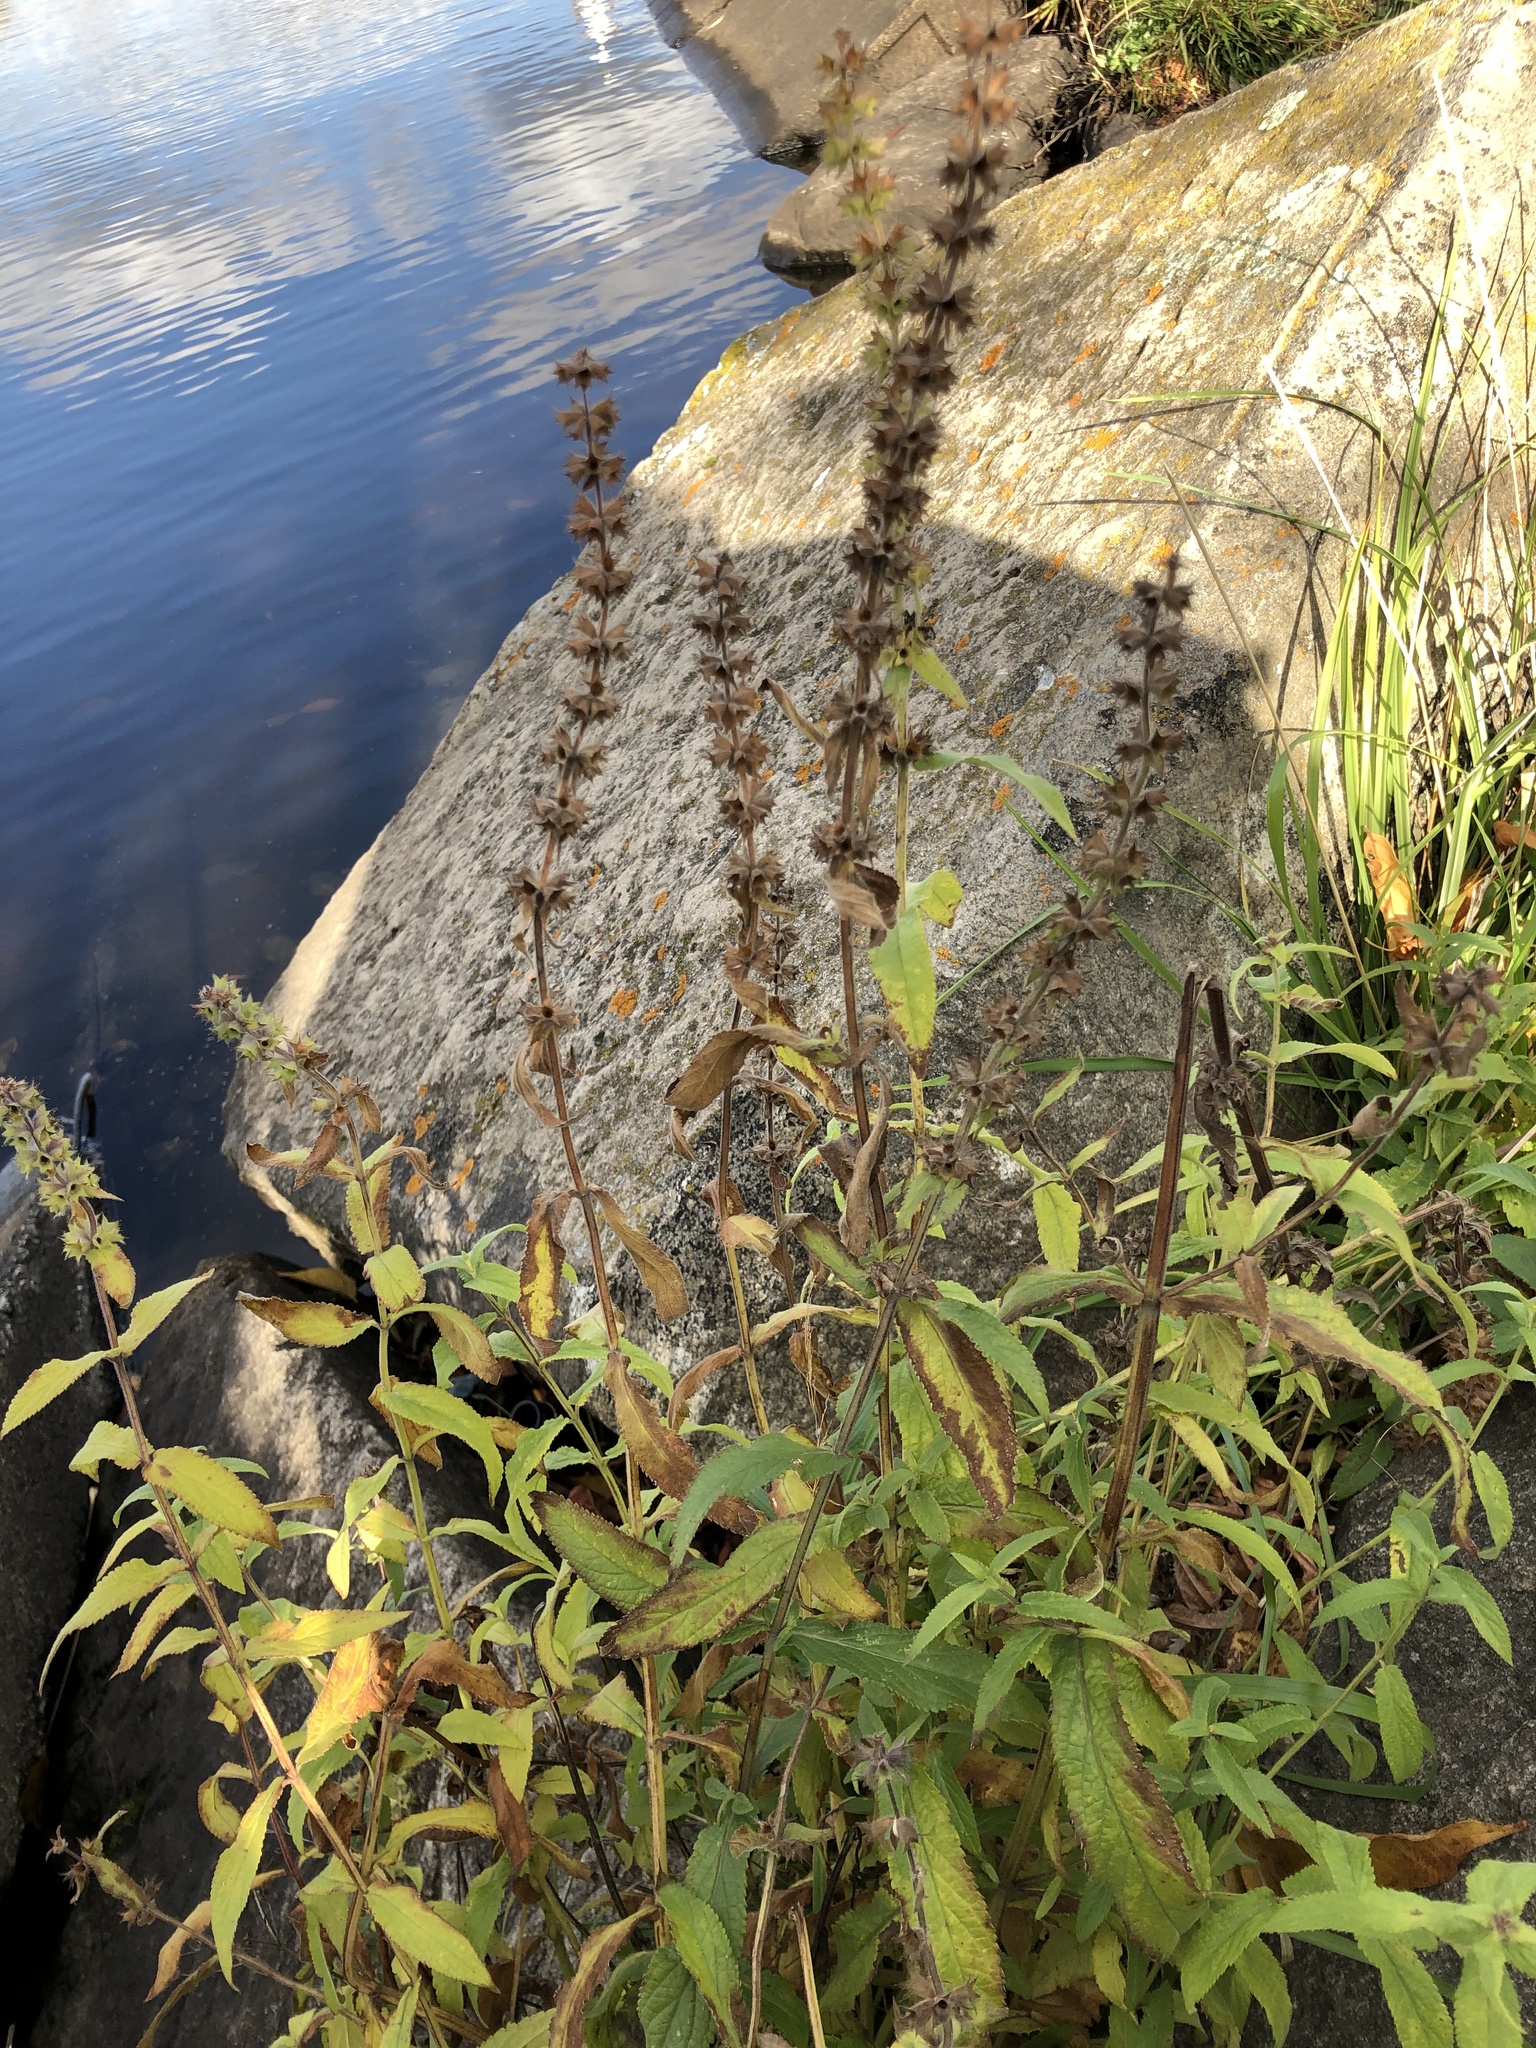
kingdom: Plantae
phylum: Tracheophyta
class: Magnoliopsida
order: Lamiales
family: Lamiaceae
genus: Stachys
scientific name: Stachys palustris
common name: Marsh woundwort
